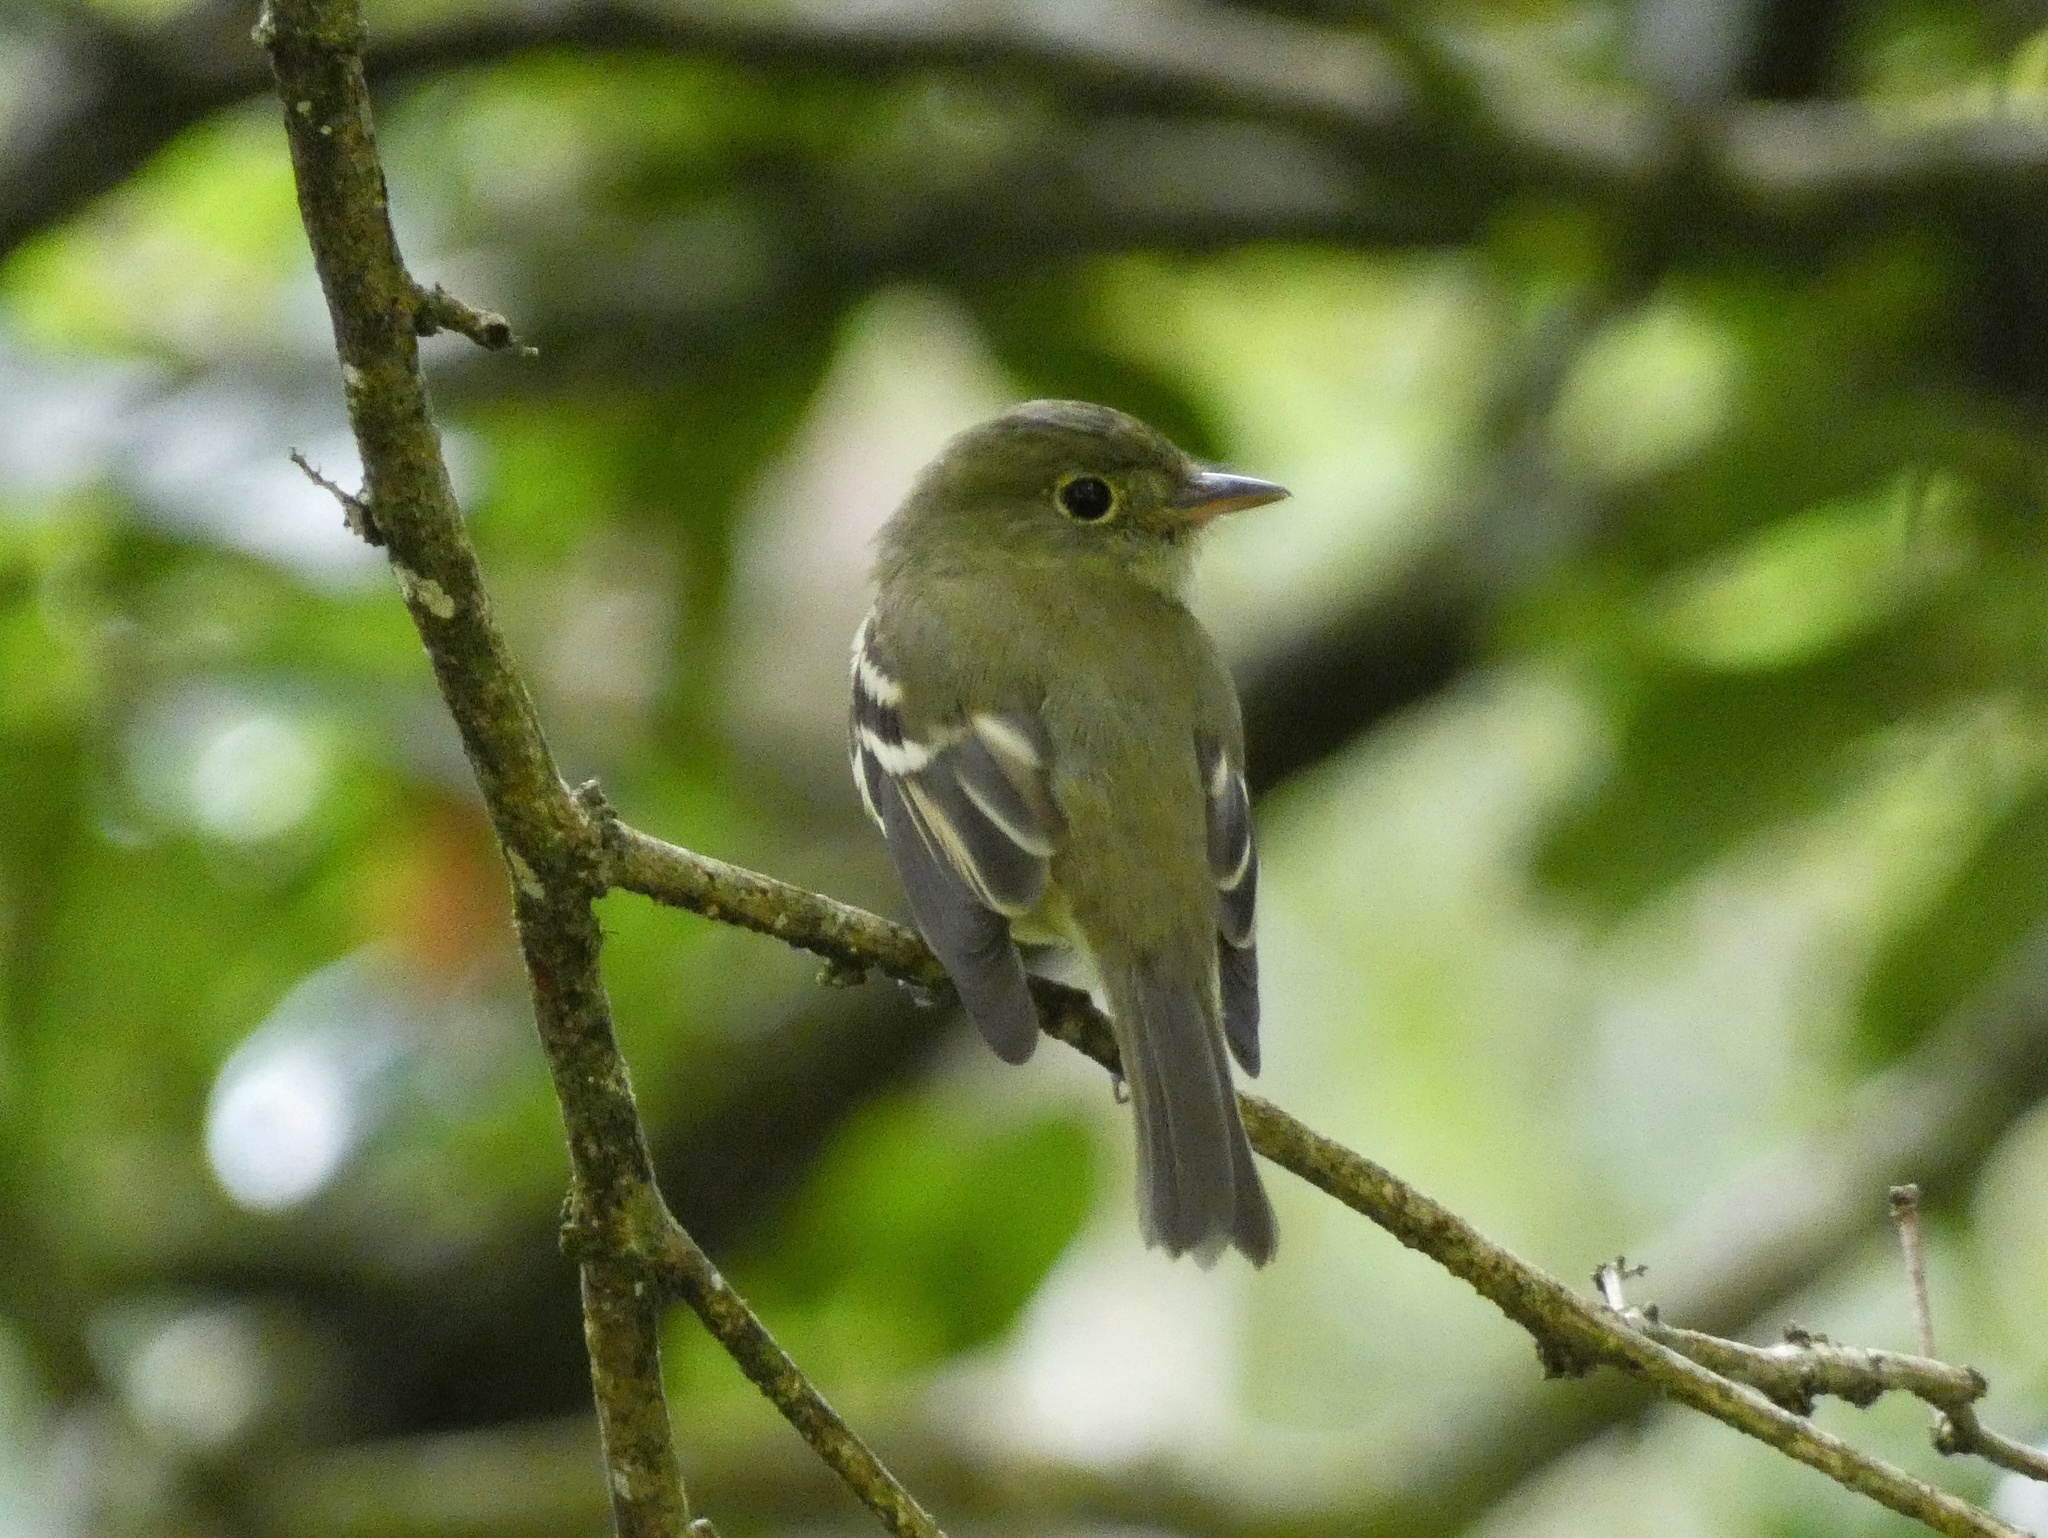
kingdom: Animalia
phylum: Chordata
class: Aves
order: Passeriformes
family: Tyrannidae
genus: Empidonax
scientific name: Empidonax virescens
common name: Acadian flycatcher
